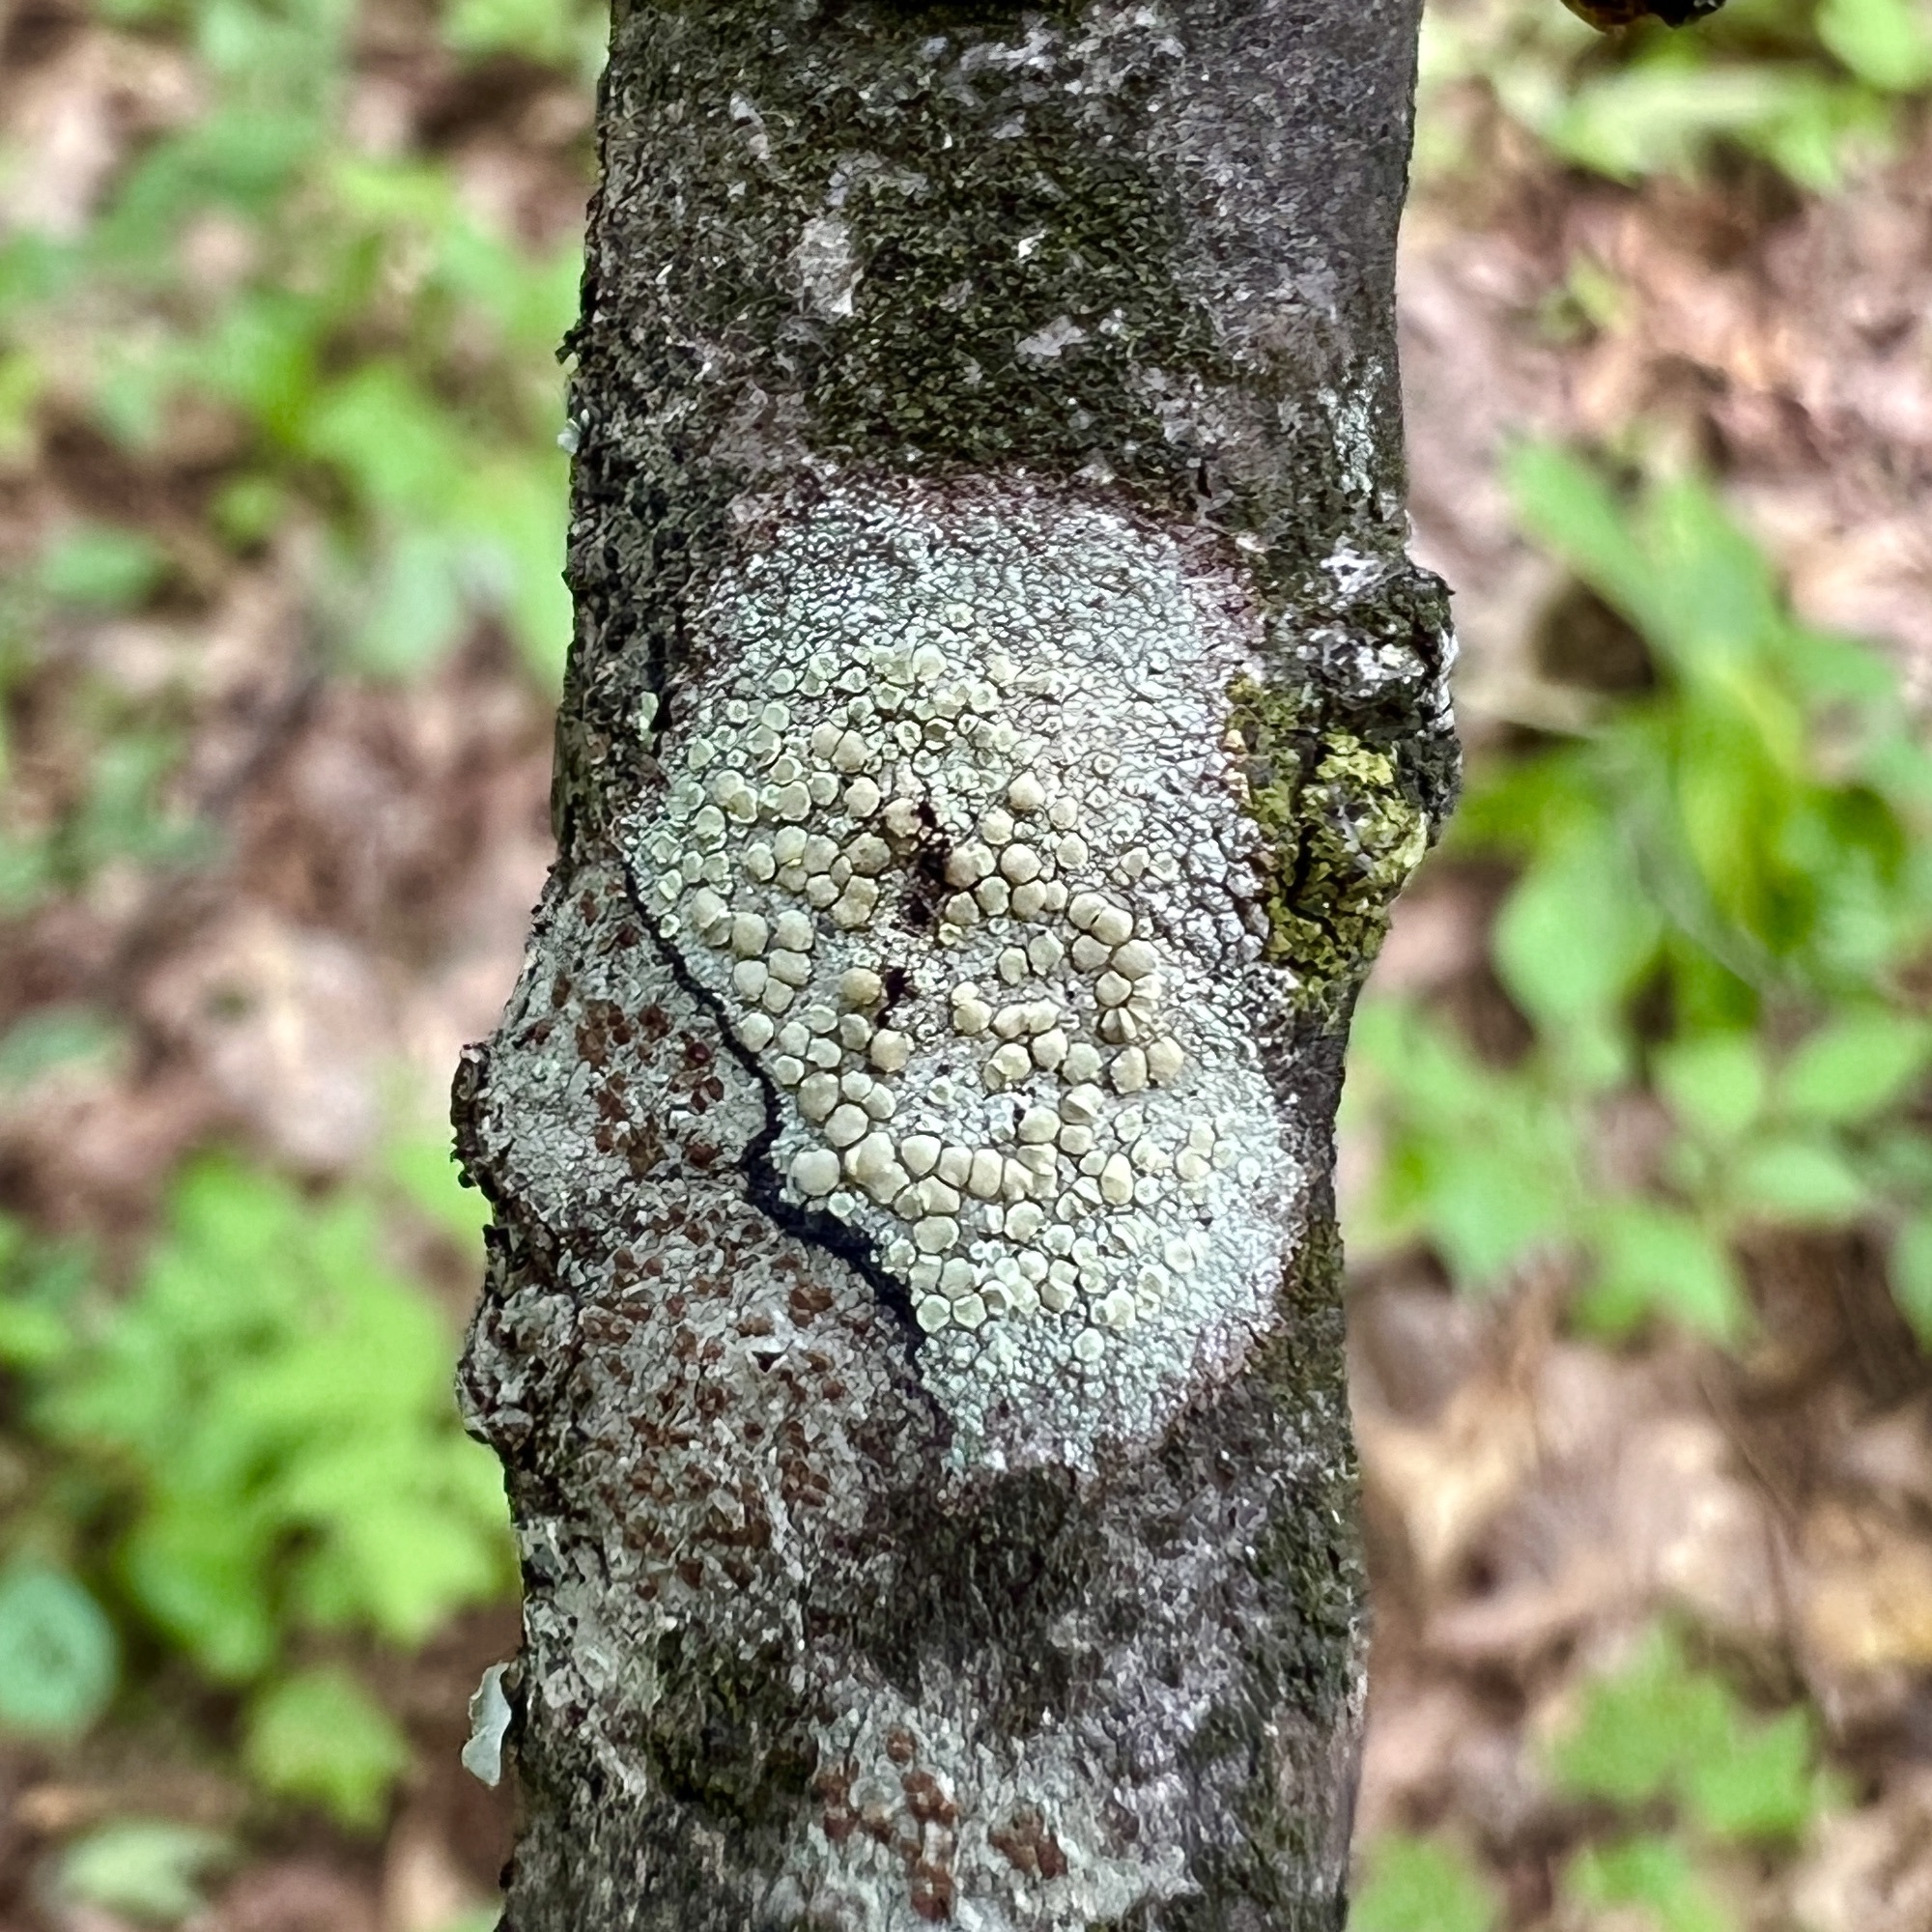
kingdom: Fungi
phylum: Ascomycota
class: Lecanoromycetes
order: Lecanorales
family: Lecanoraceae
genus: Lecanora
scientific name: Lecanora strobilina
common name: Mealy rim-lichen
